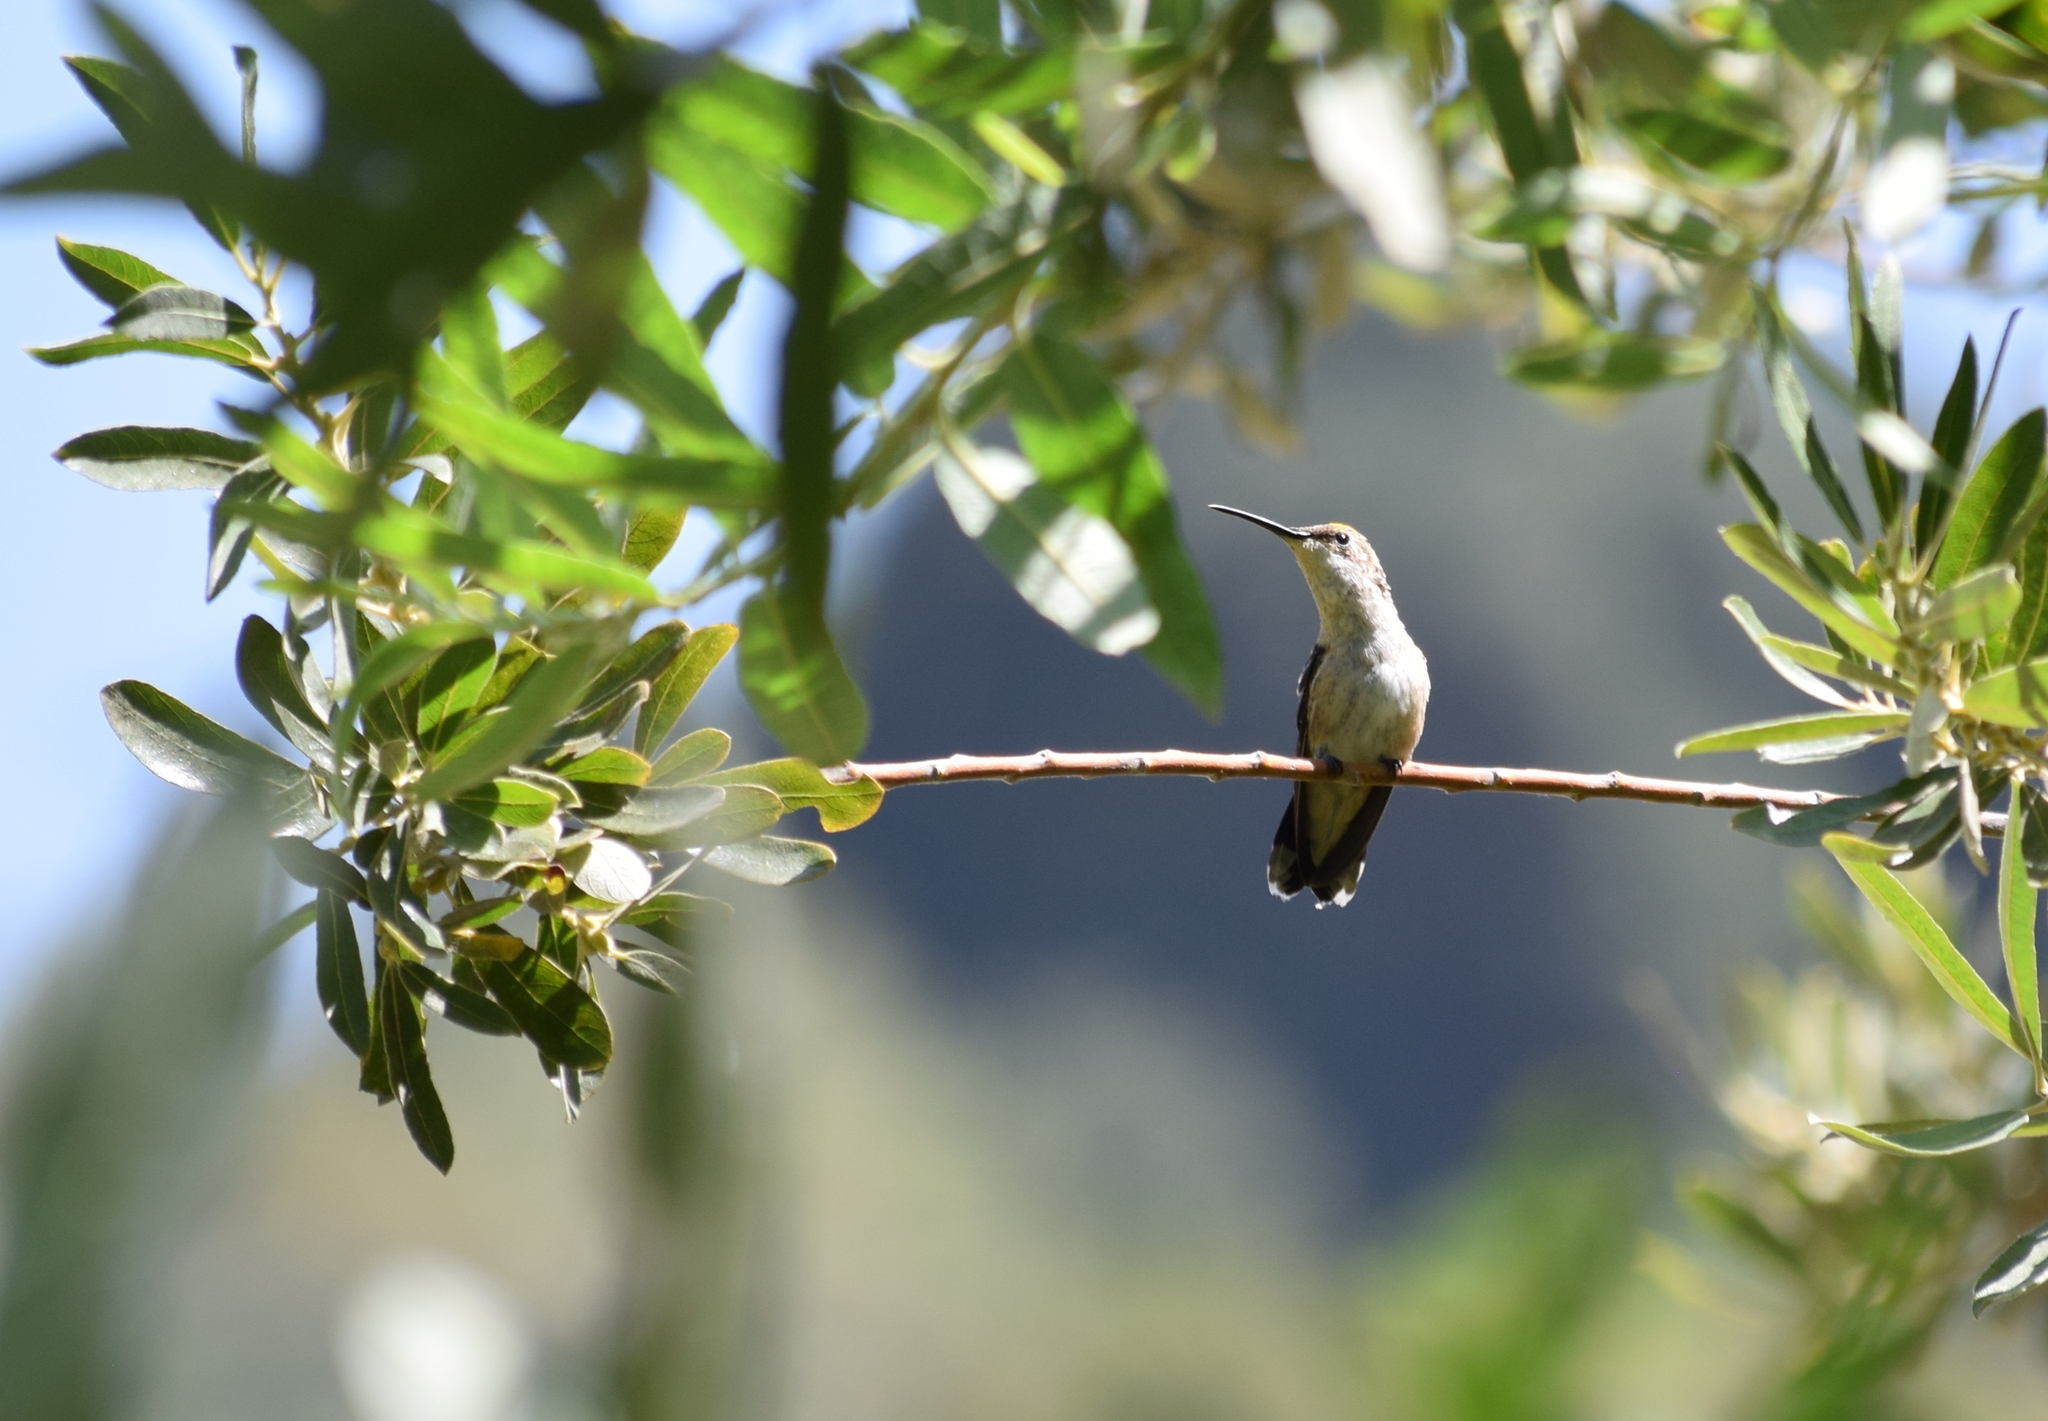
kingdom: Animalia
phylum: Chordata
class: Aves
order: Apodiformes
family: Trochilidae
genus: Archilochus
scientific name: Archilochus alexandri
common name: Black-chinned hummingbird
